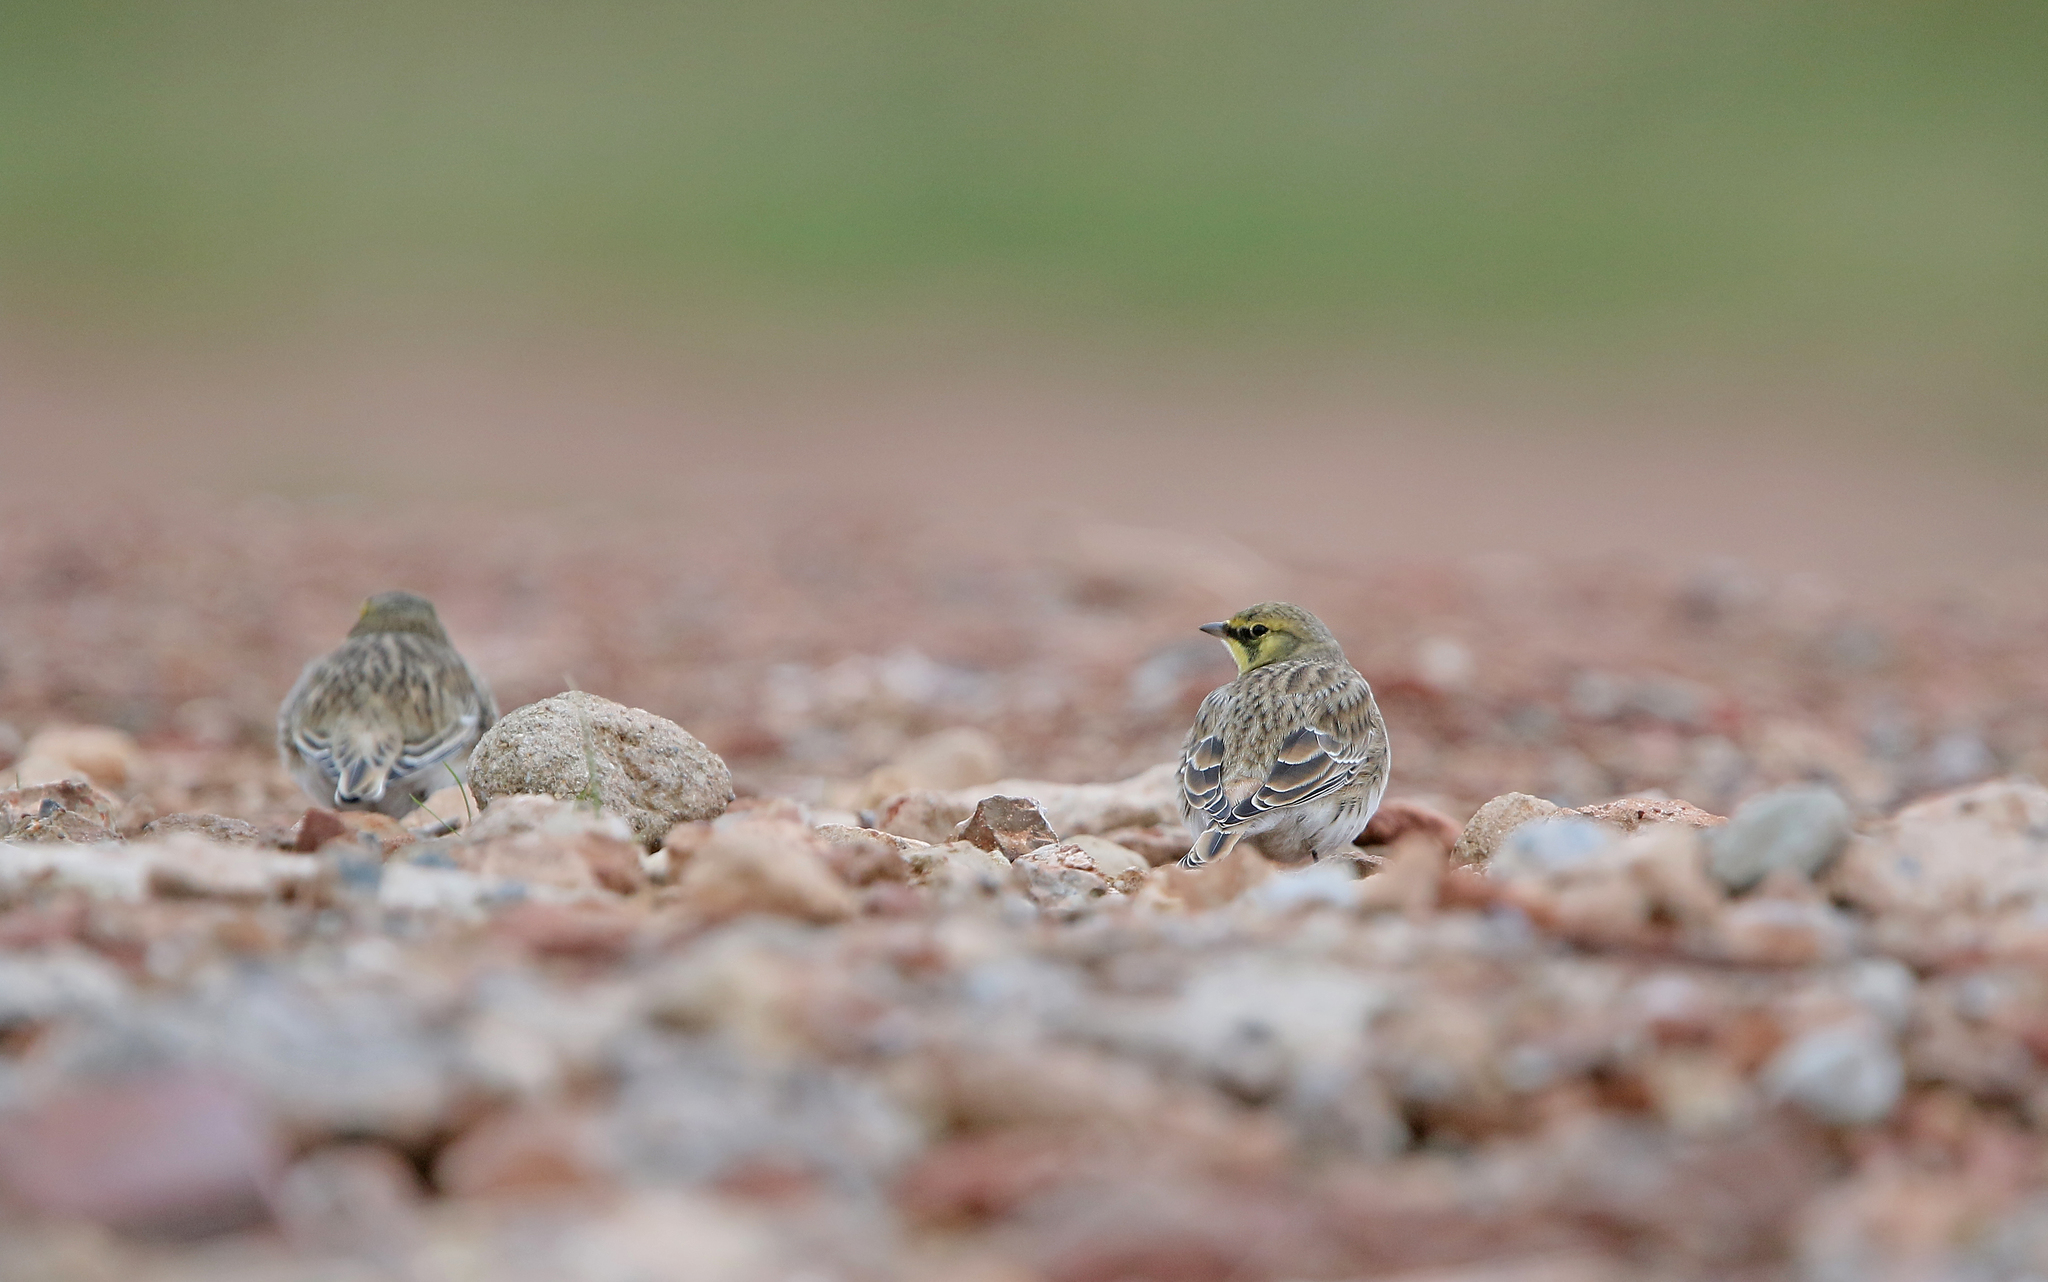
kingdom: Animalia
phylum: Chordata
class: Aves
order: Passeriformes
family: Alaudidae
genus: Eremophila
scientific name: Eremophila alpestris
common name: Horned lark
